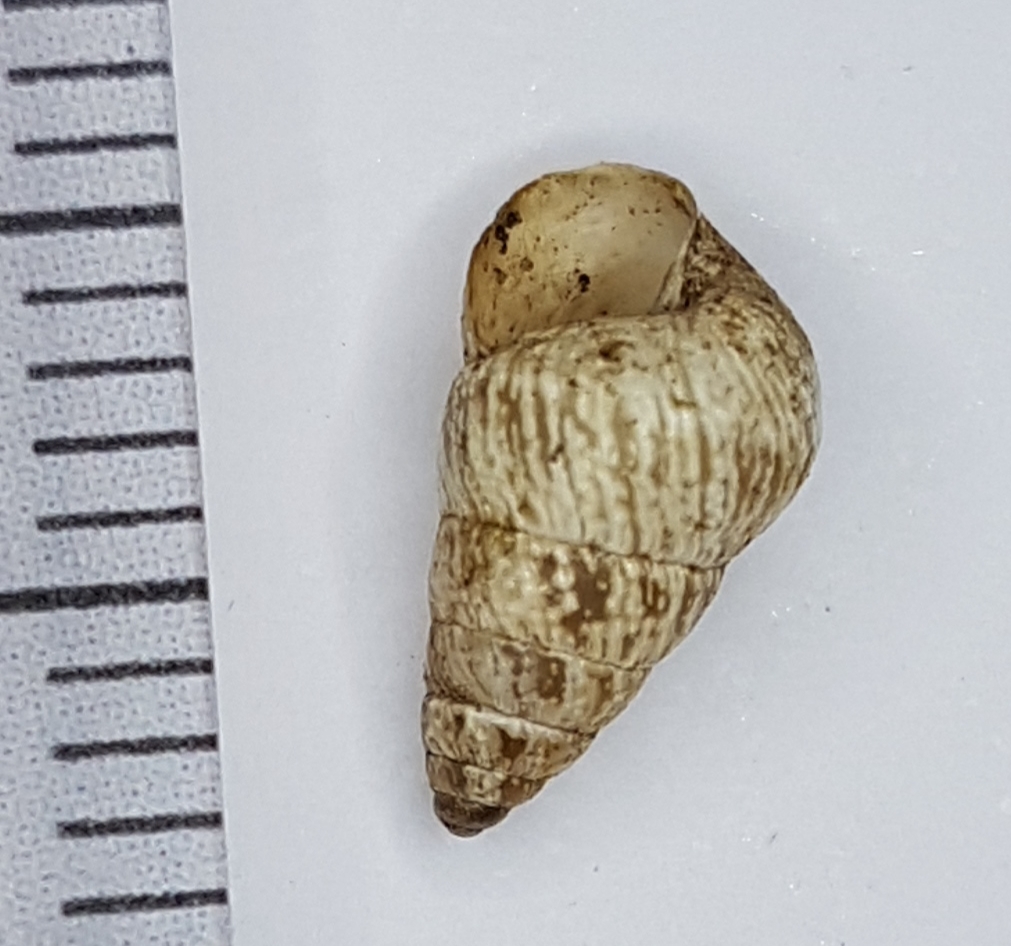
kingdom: Animalia
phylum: Mollusca
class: Gastropoda
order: Stylommatophora
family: Geomitridae
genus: Cochlicella
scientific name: Cochlicella barbara
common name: Potbellied helicellid
